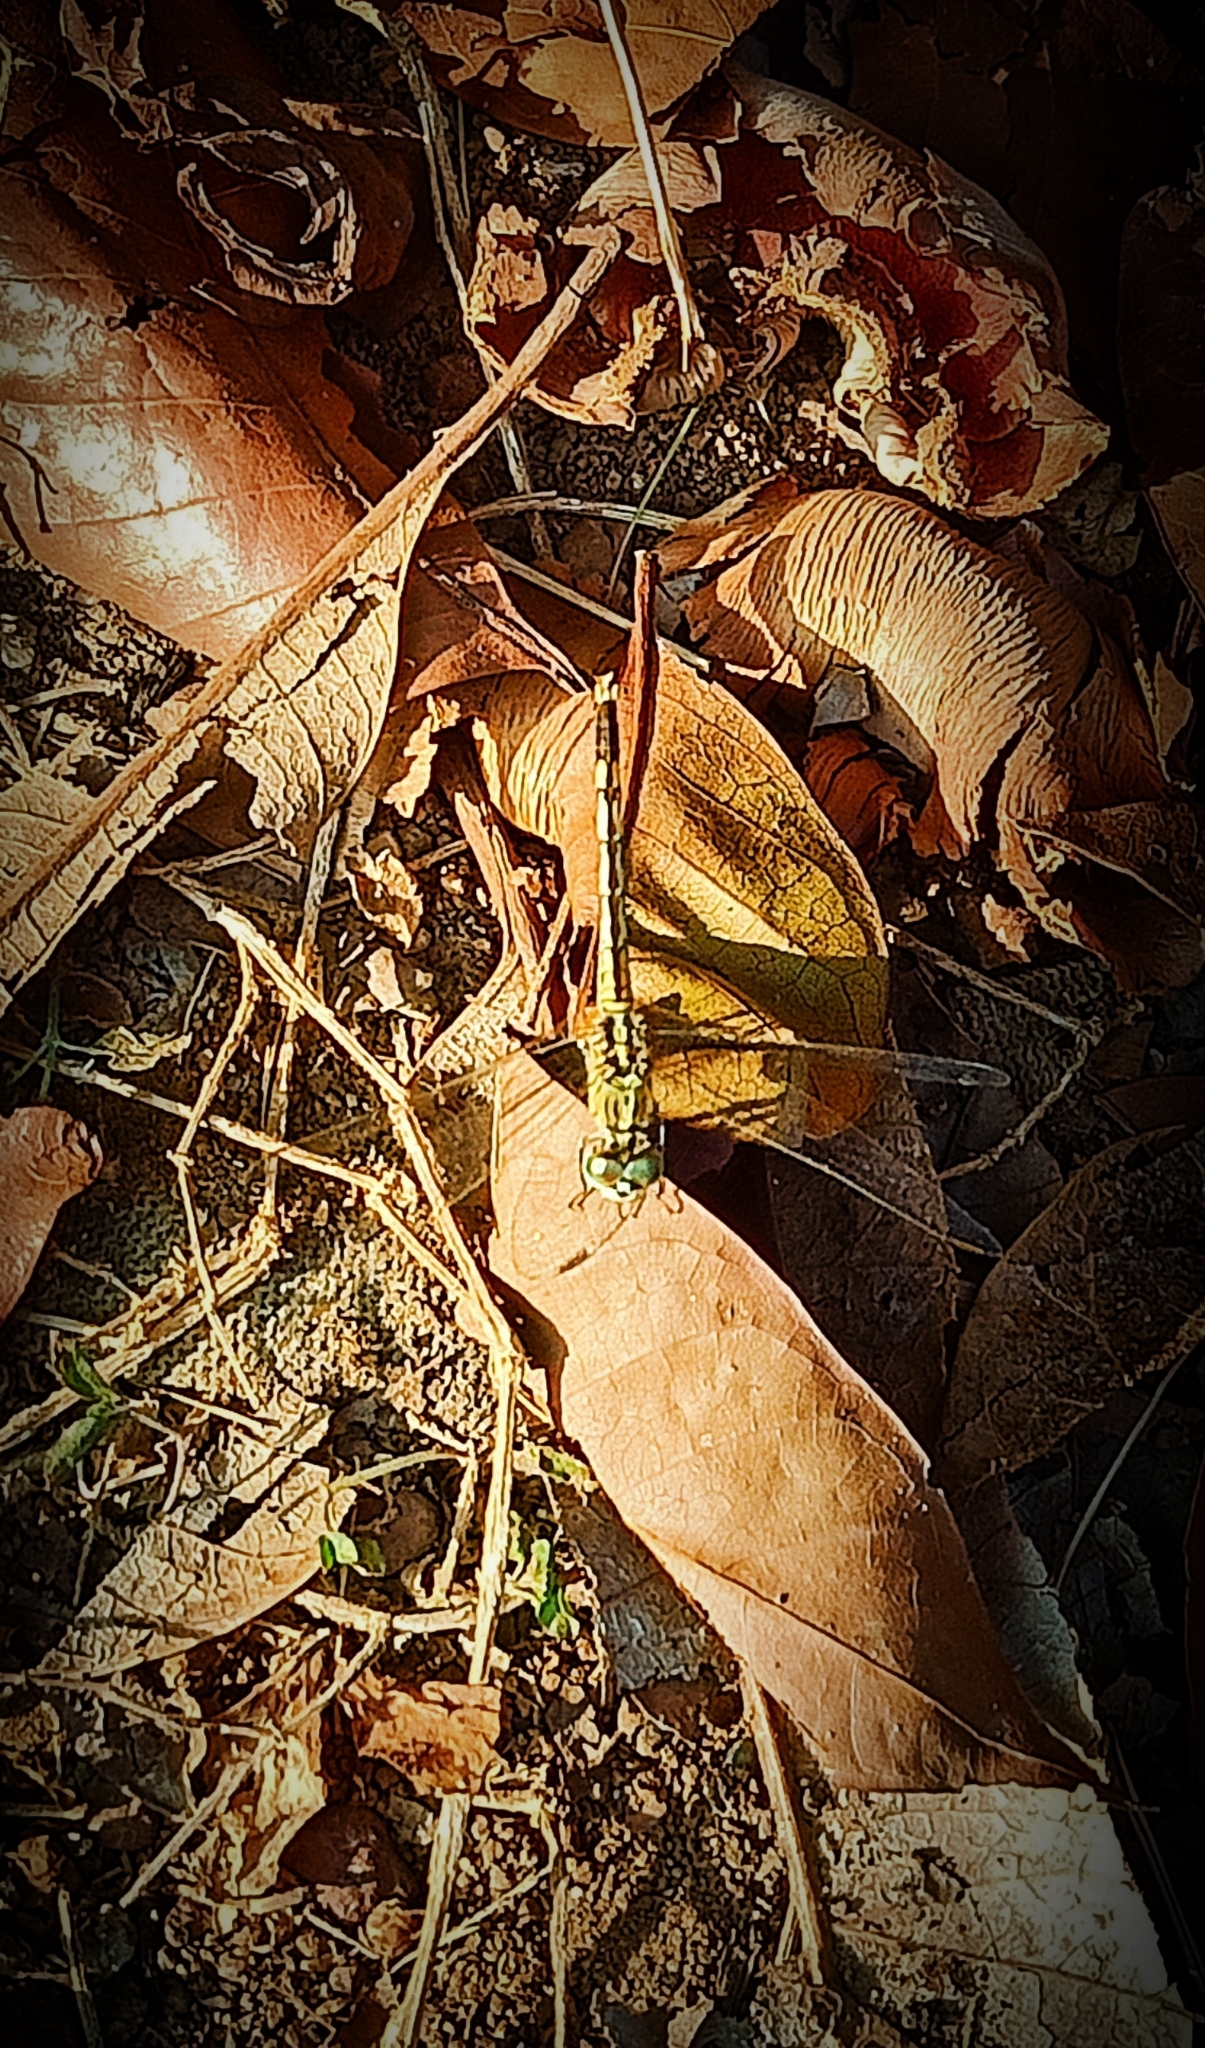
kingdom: Animalia
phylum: Arthropoda
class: Insecta
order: Odonata
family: Libellulidae
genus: Diplacodes
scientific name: Diplacodes trivialis
